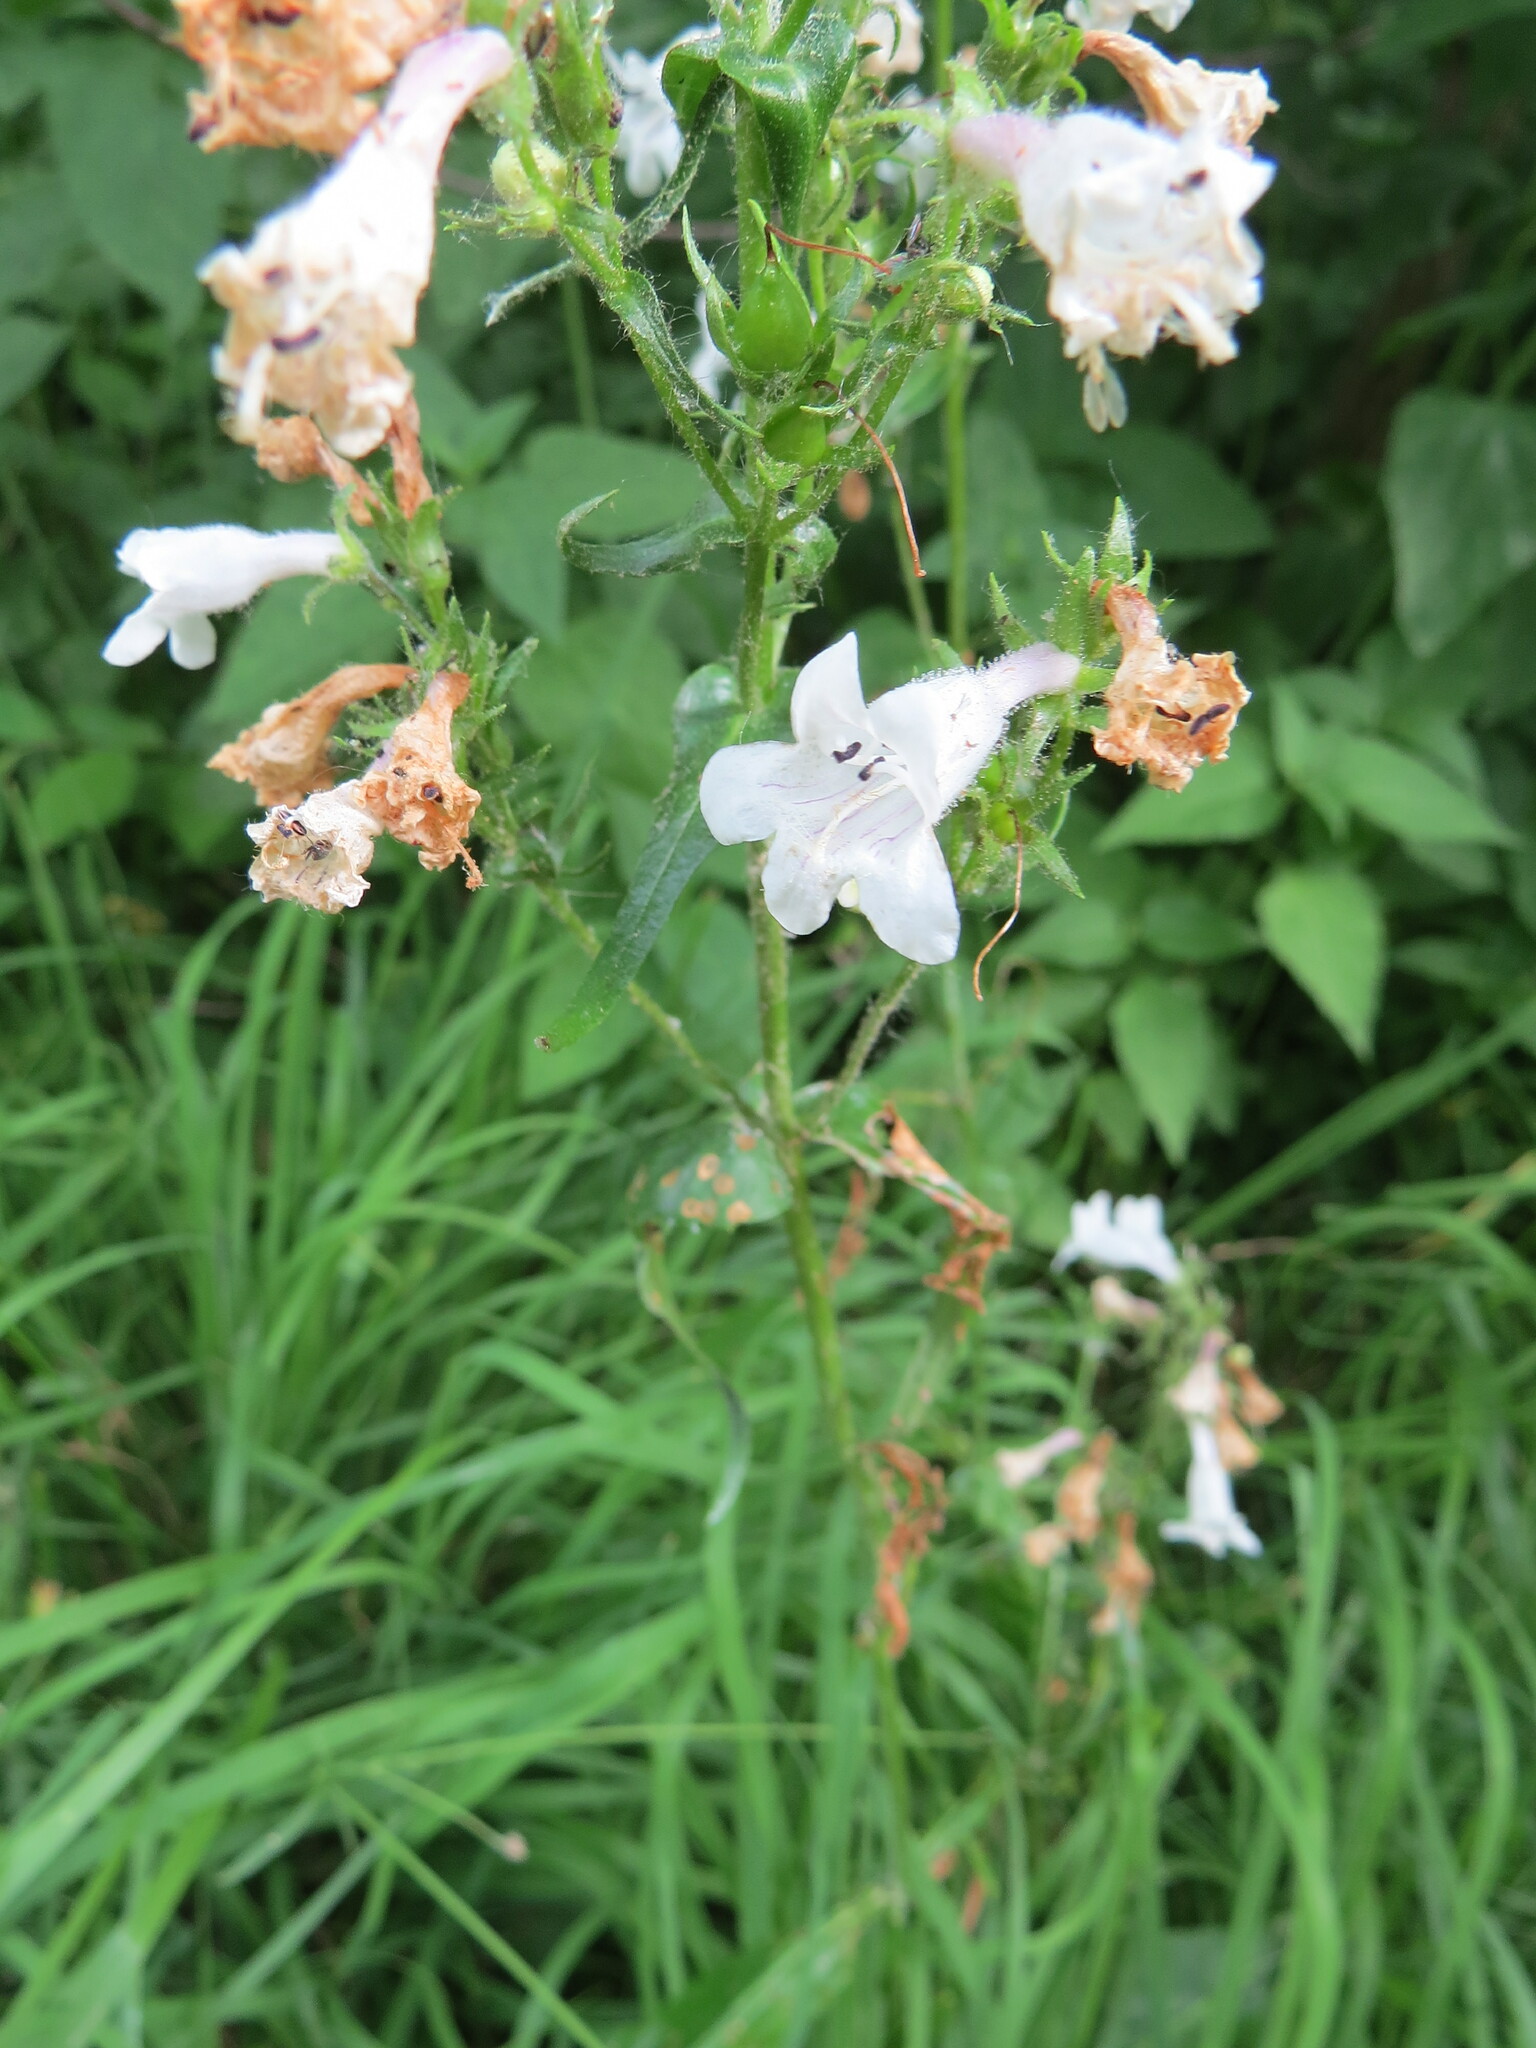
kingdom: Plantae
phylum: Tracheophyta
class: Magnoliopsida
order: Lamiales
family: Plantaginaceae
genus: Penstemon
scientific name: Penstemon digitalis
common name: Foxglove beardtongue
